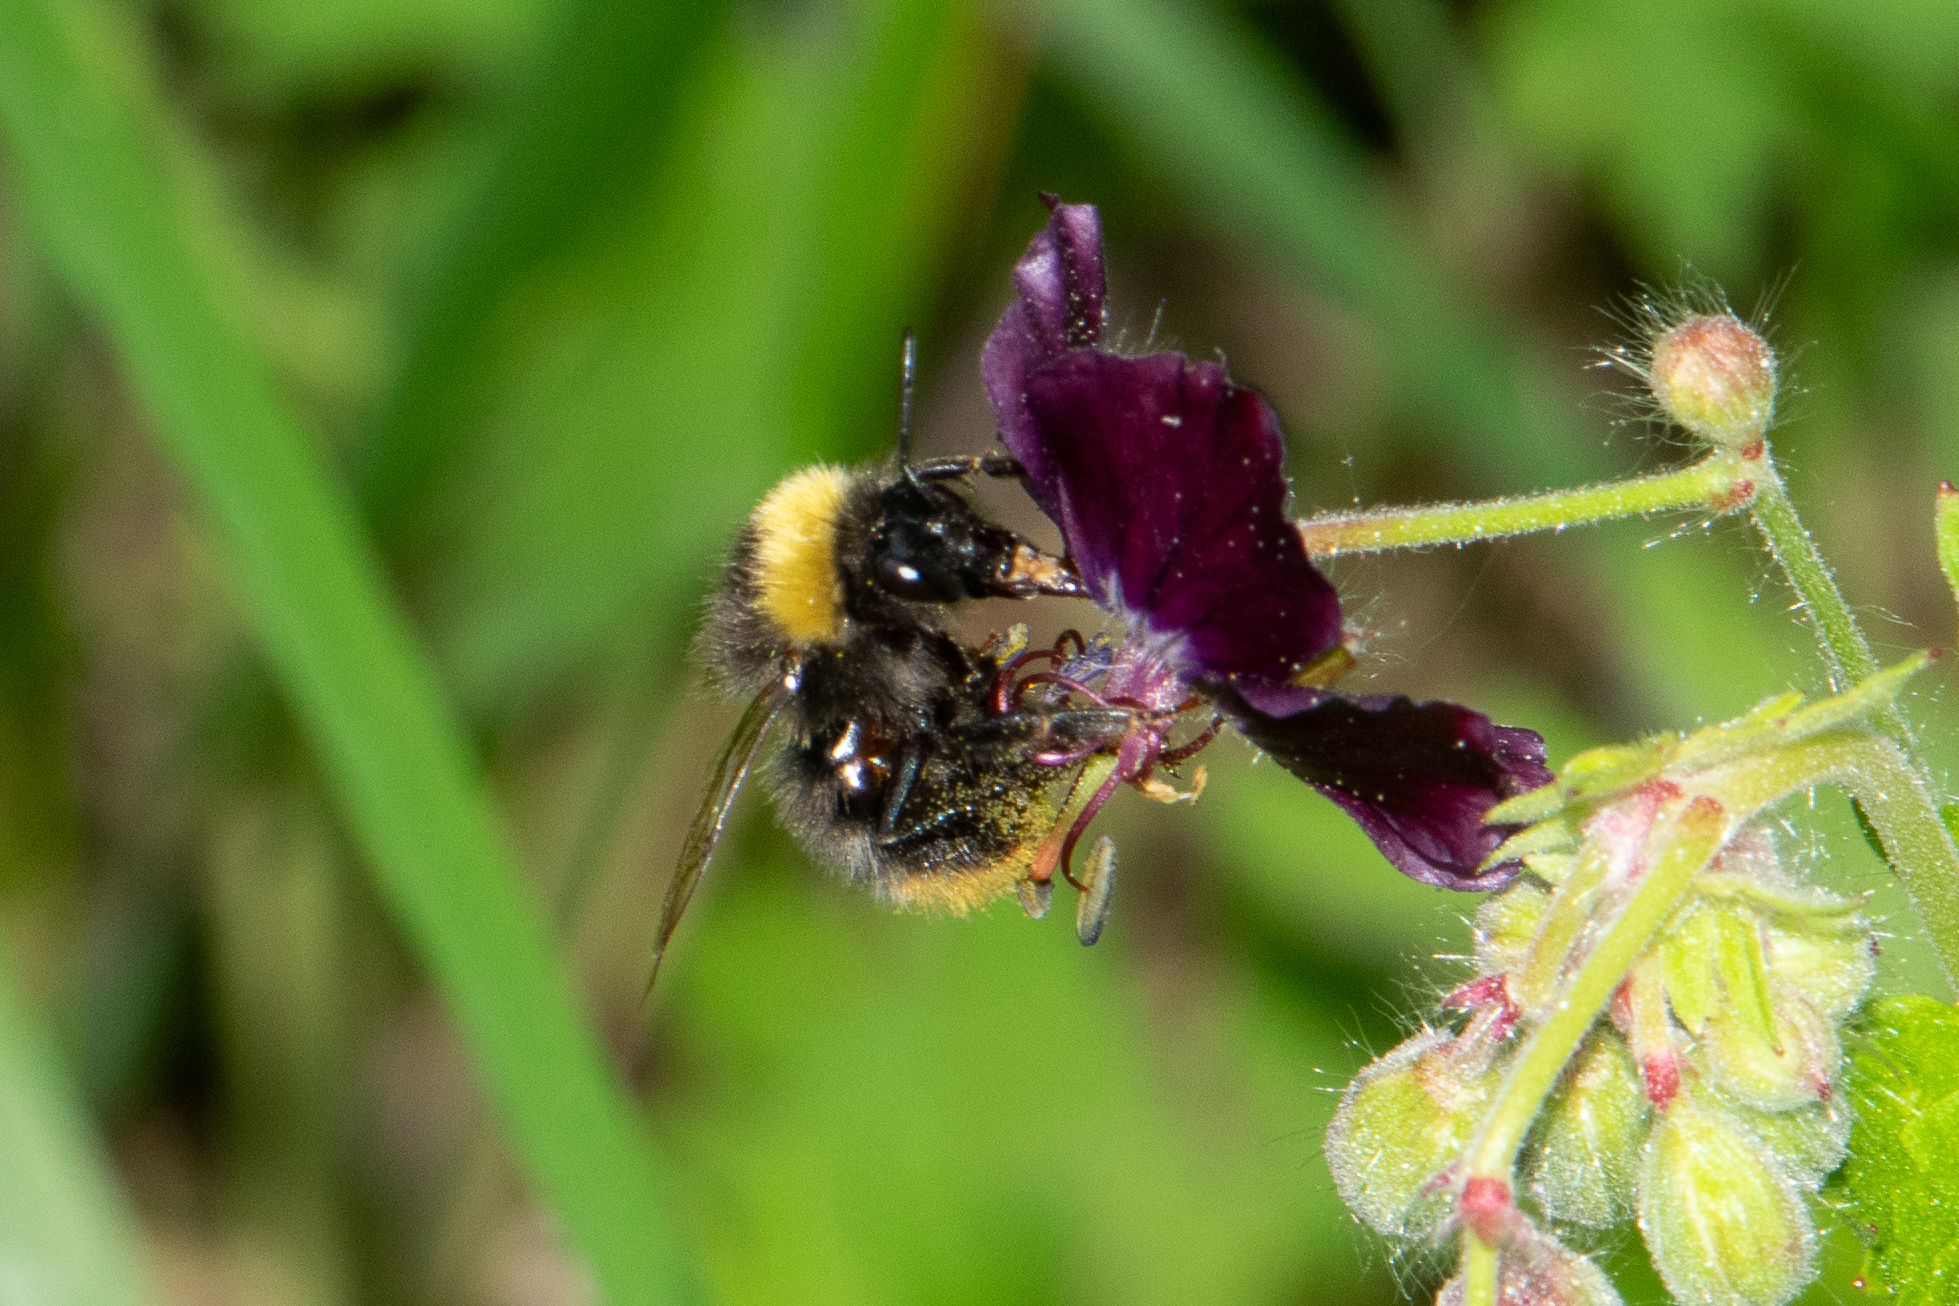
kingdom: Animalia
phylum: Arthropoda
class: Insecta
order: Hymenoptera
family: Apidae
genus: Bombus
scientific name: Bombus pratorum
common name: Early humble-bee
